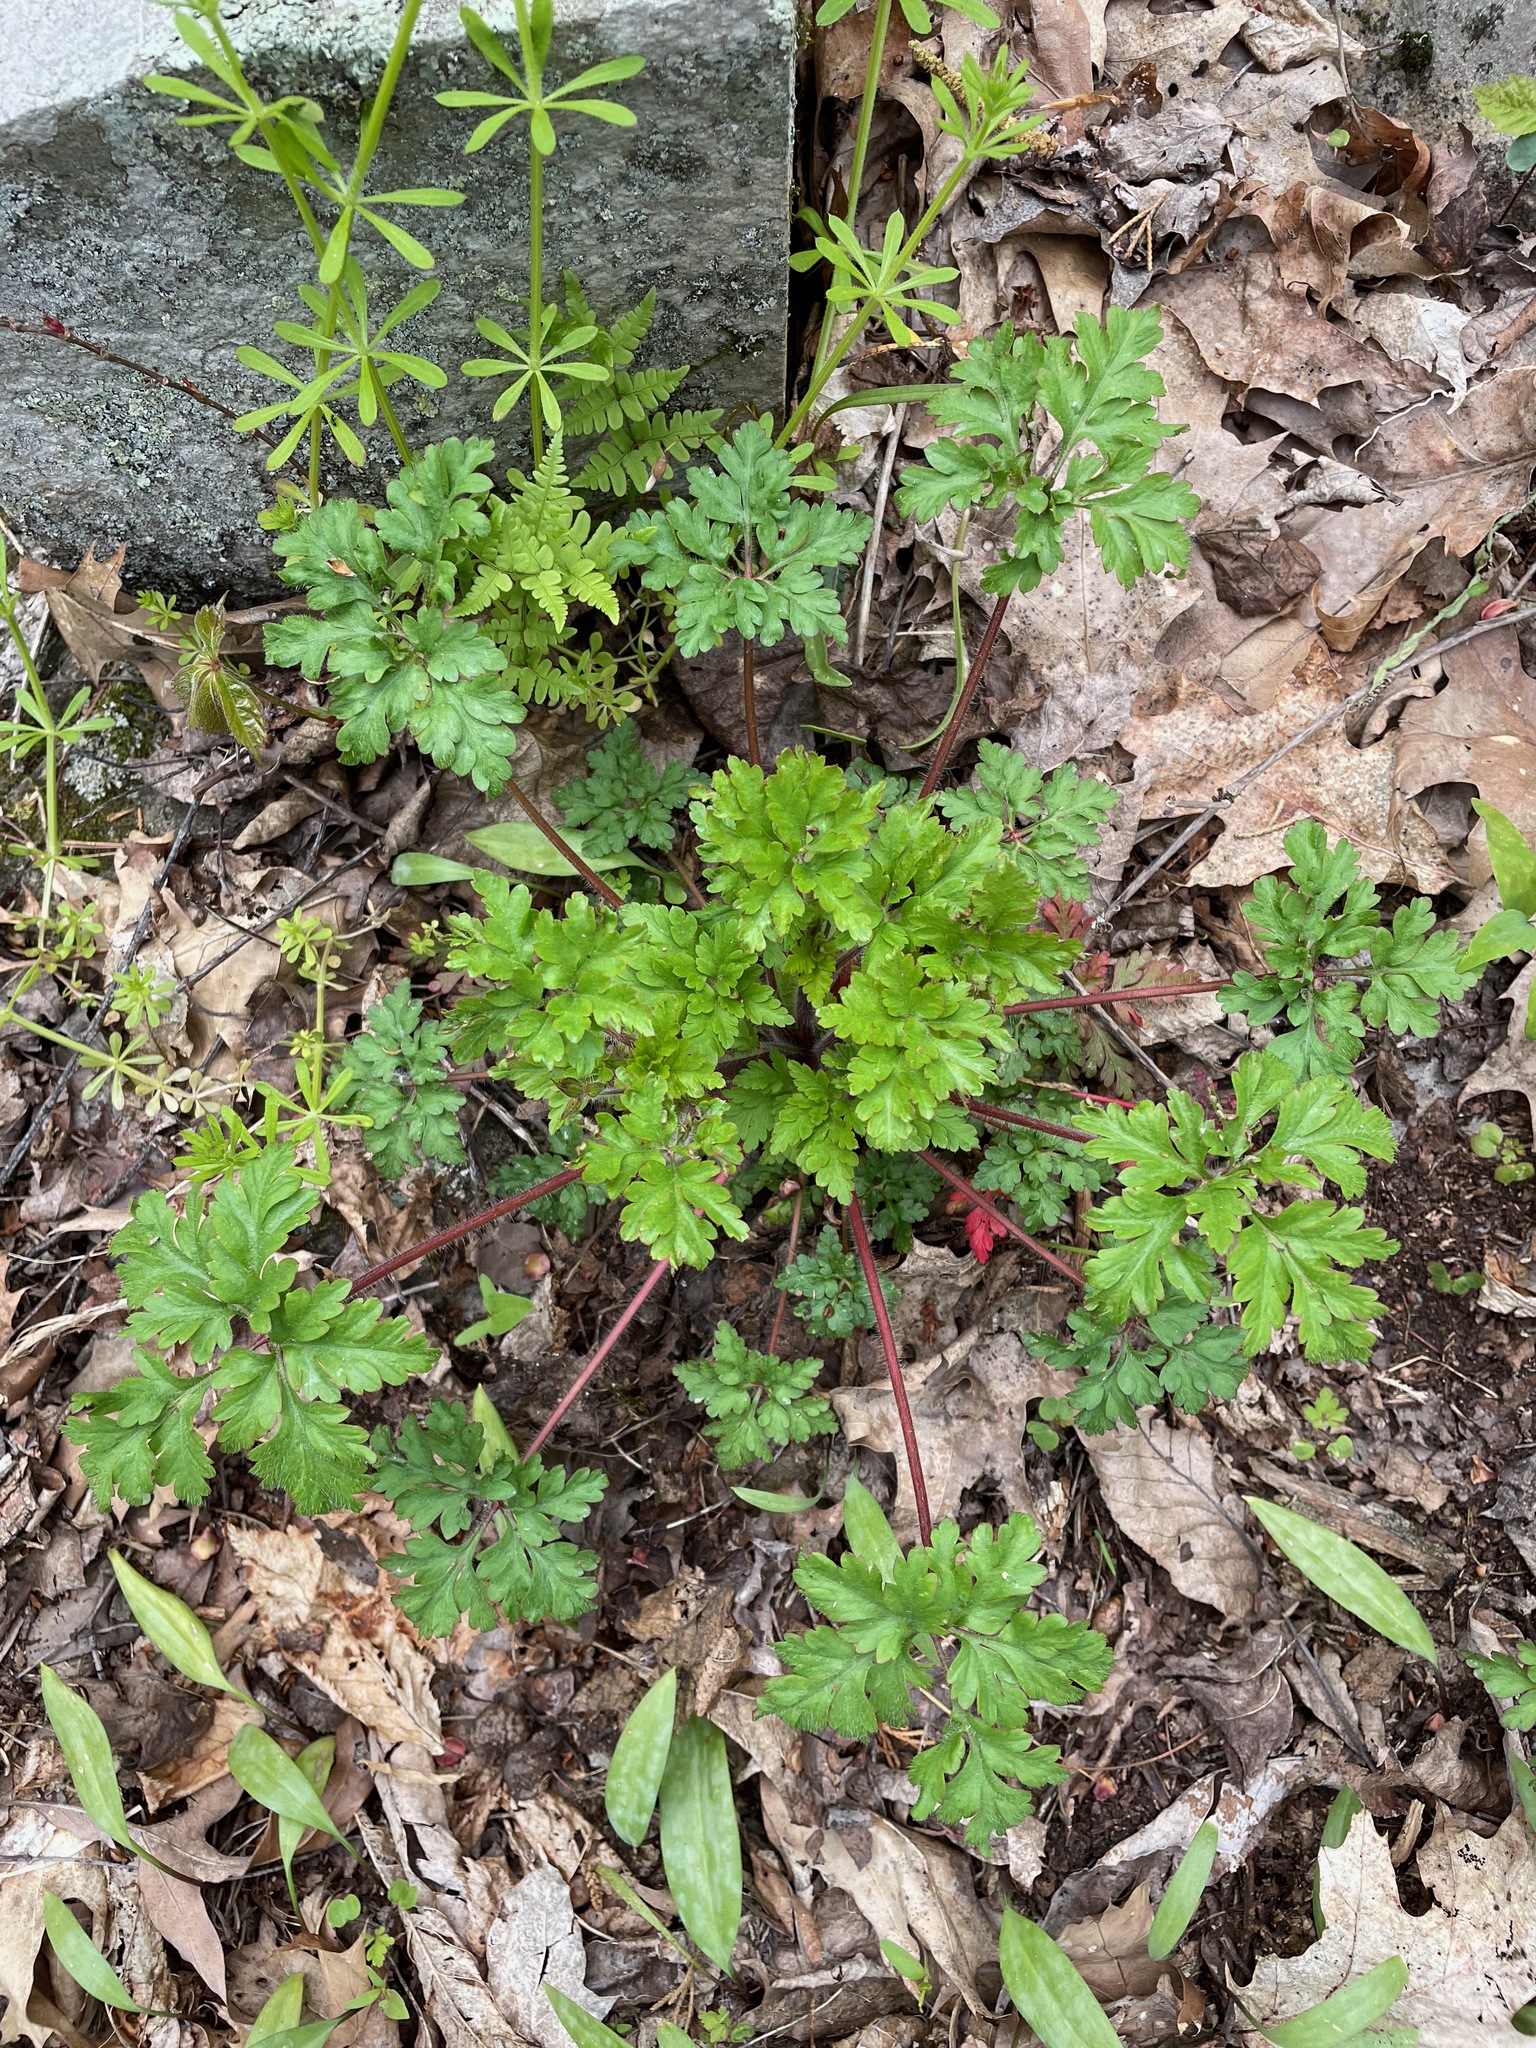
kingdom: Plantae
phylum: Tracheophyta
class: Magnoliopsida
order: Geraniales
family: Geraniaceae
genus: Geranium
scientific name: Geranium robertianum
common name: Herb-robert
